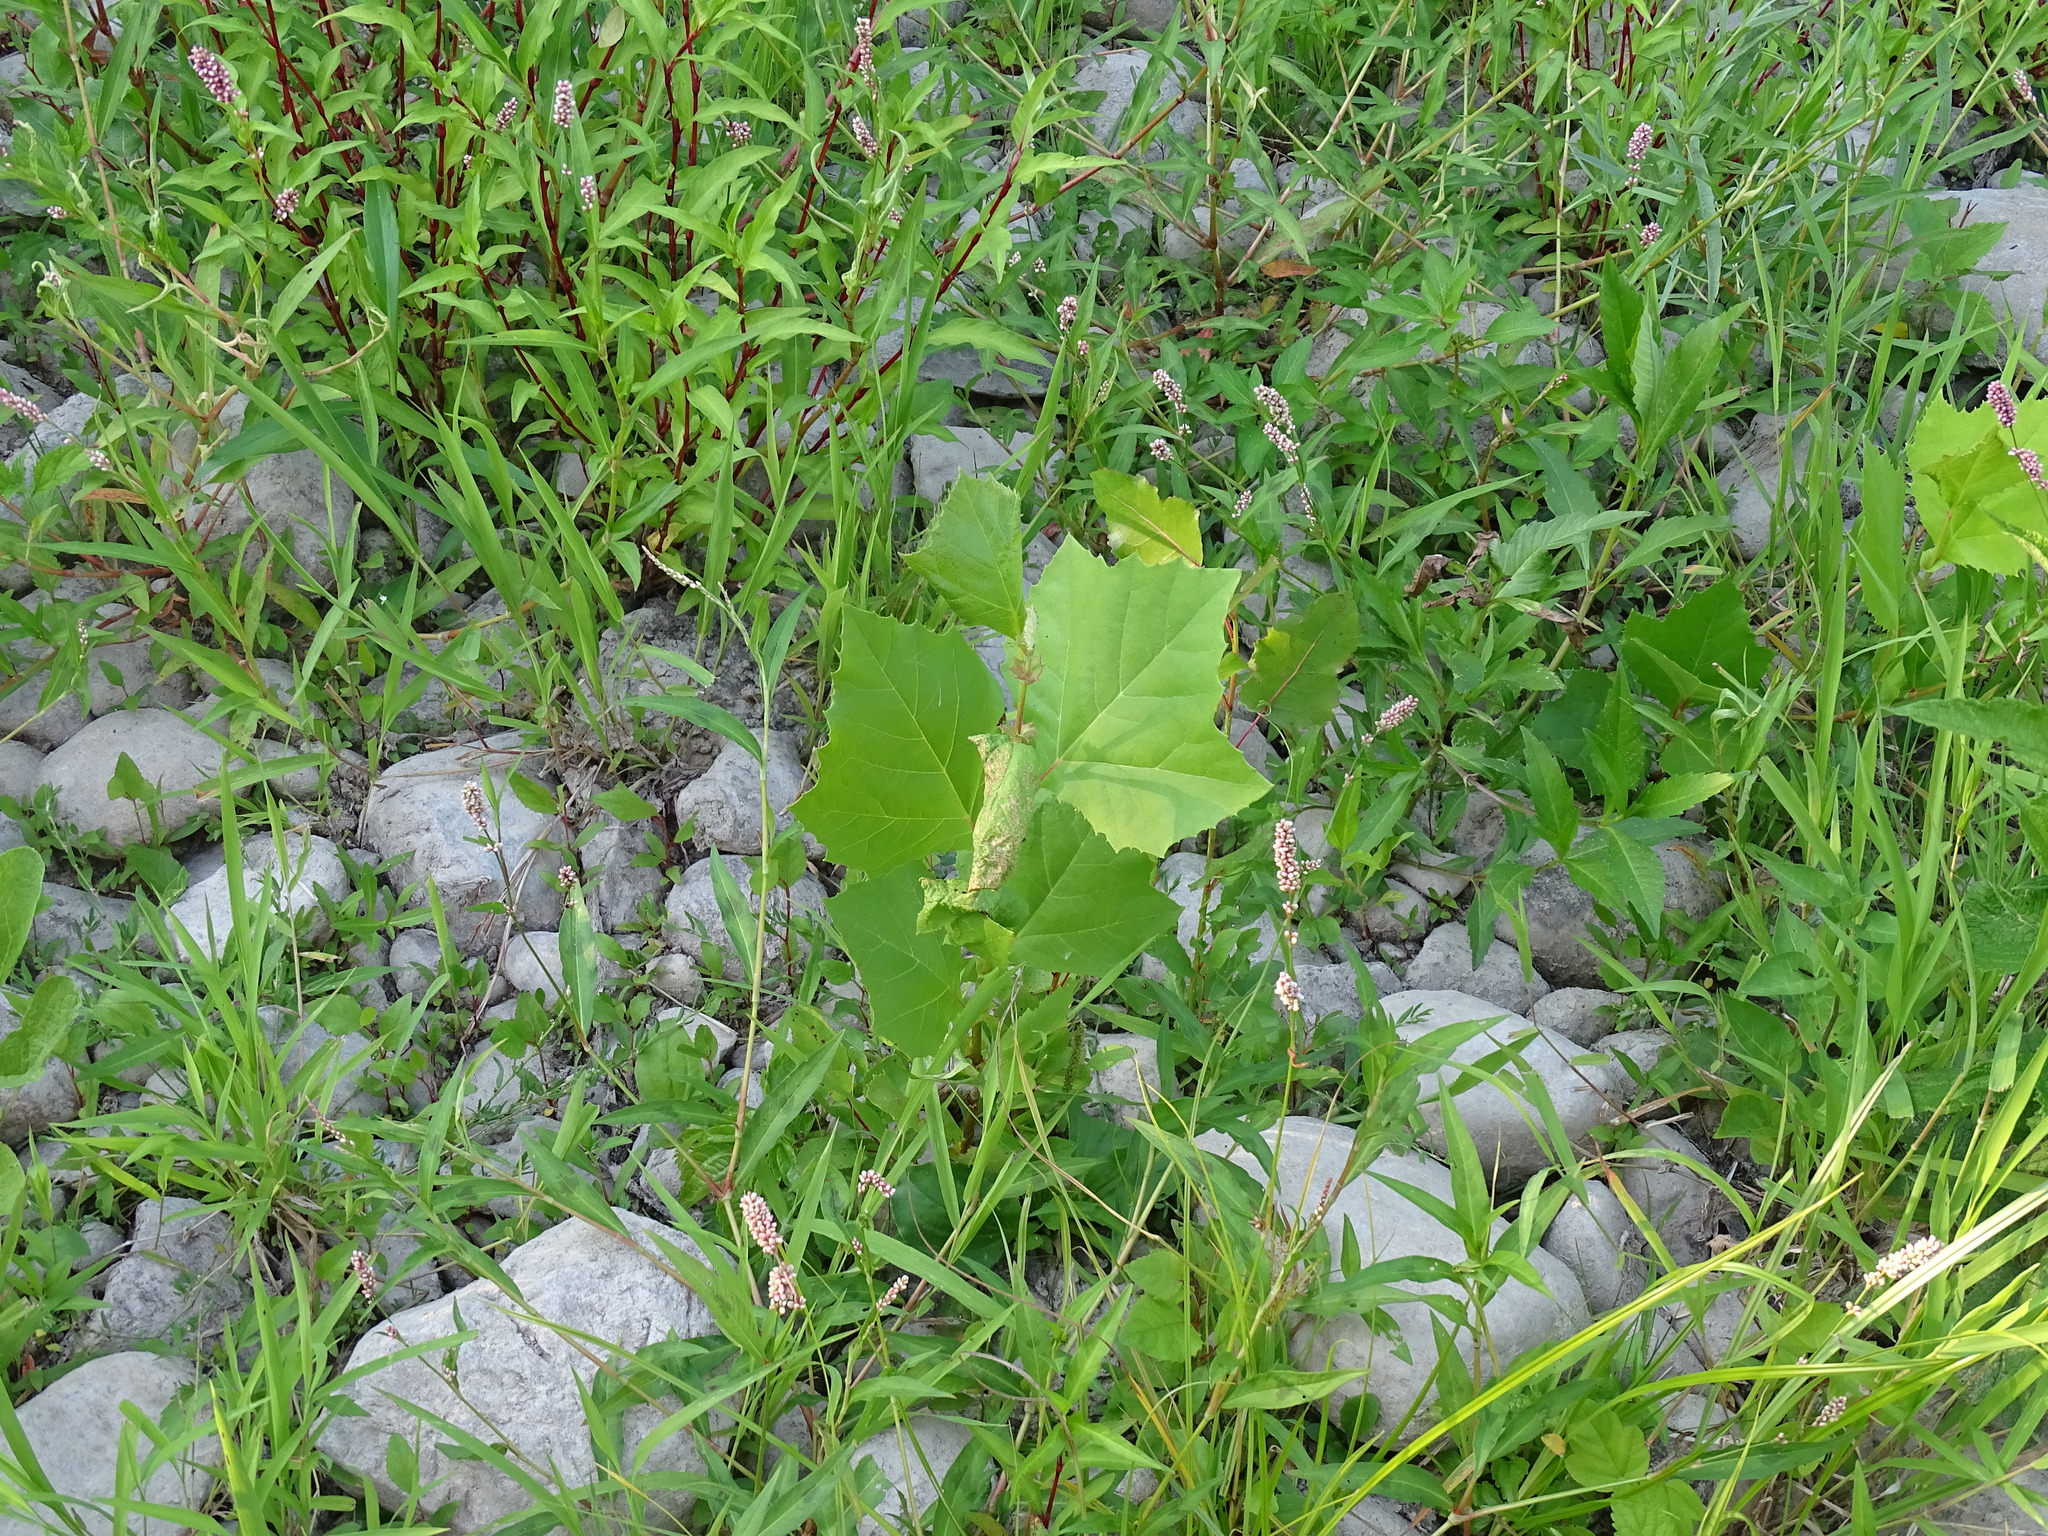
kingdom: Plantae
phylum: Tracheophyta
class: Magnoliopsida
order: Proteales
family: Platanaceae
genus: Platanus
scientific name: Platanus occidentalis
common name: American sycamore
